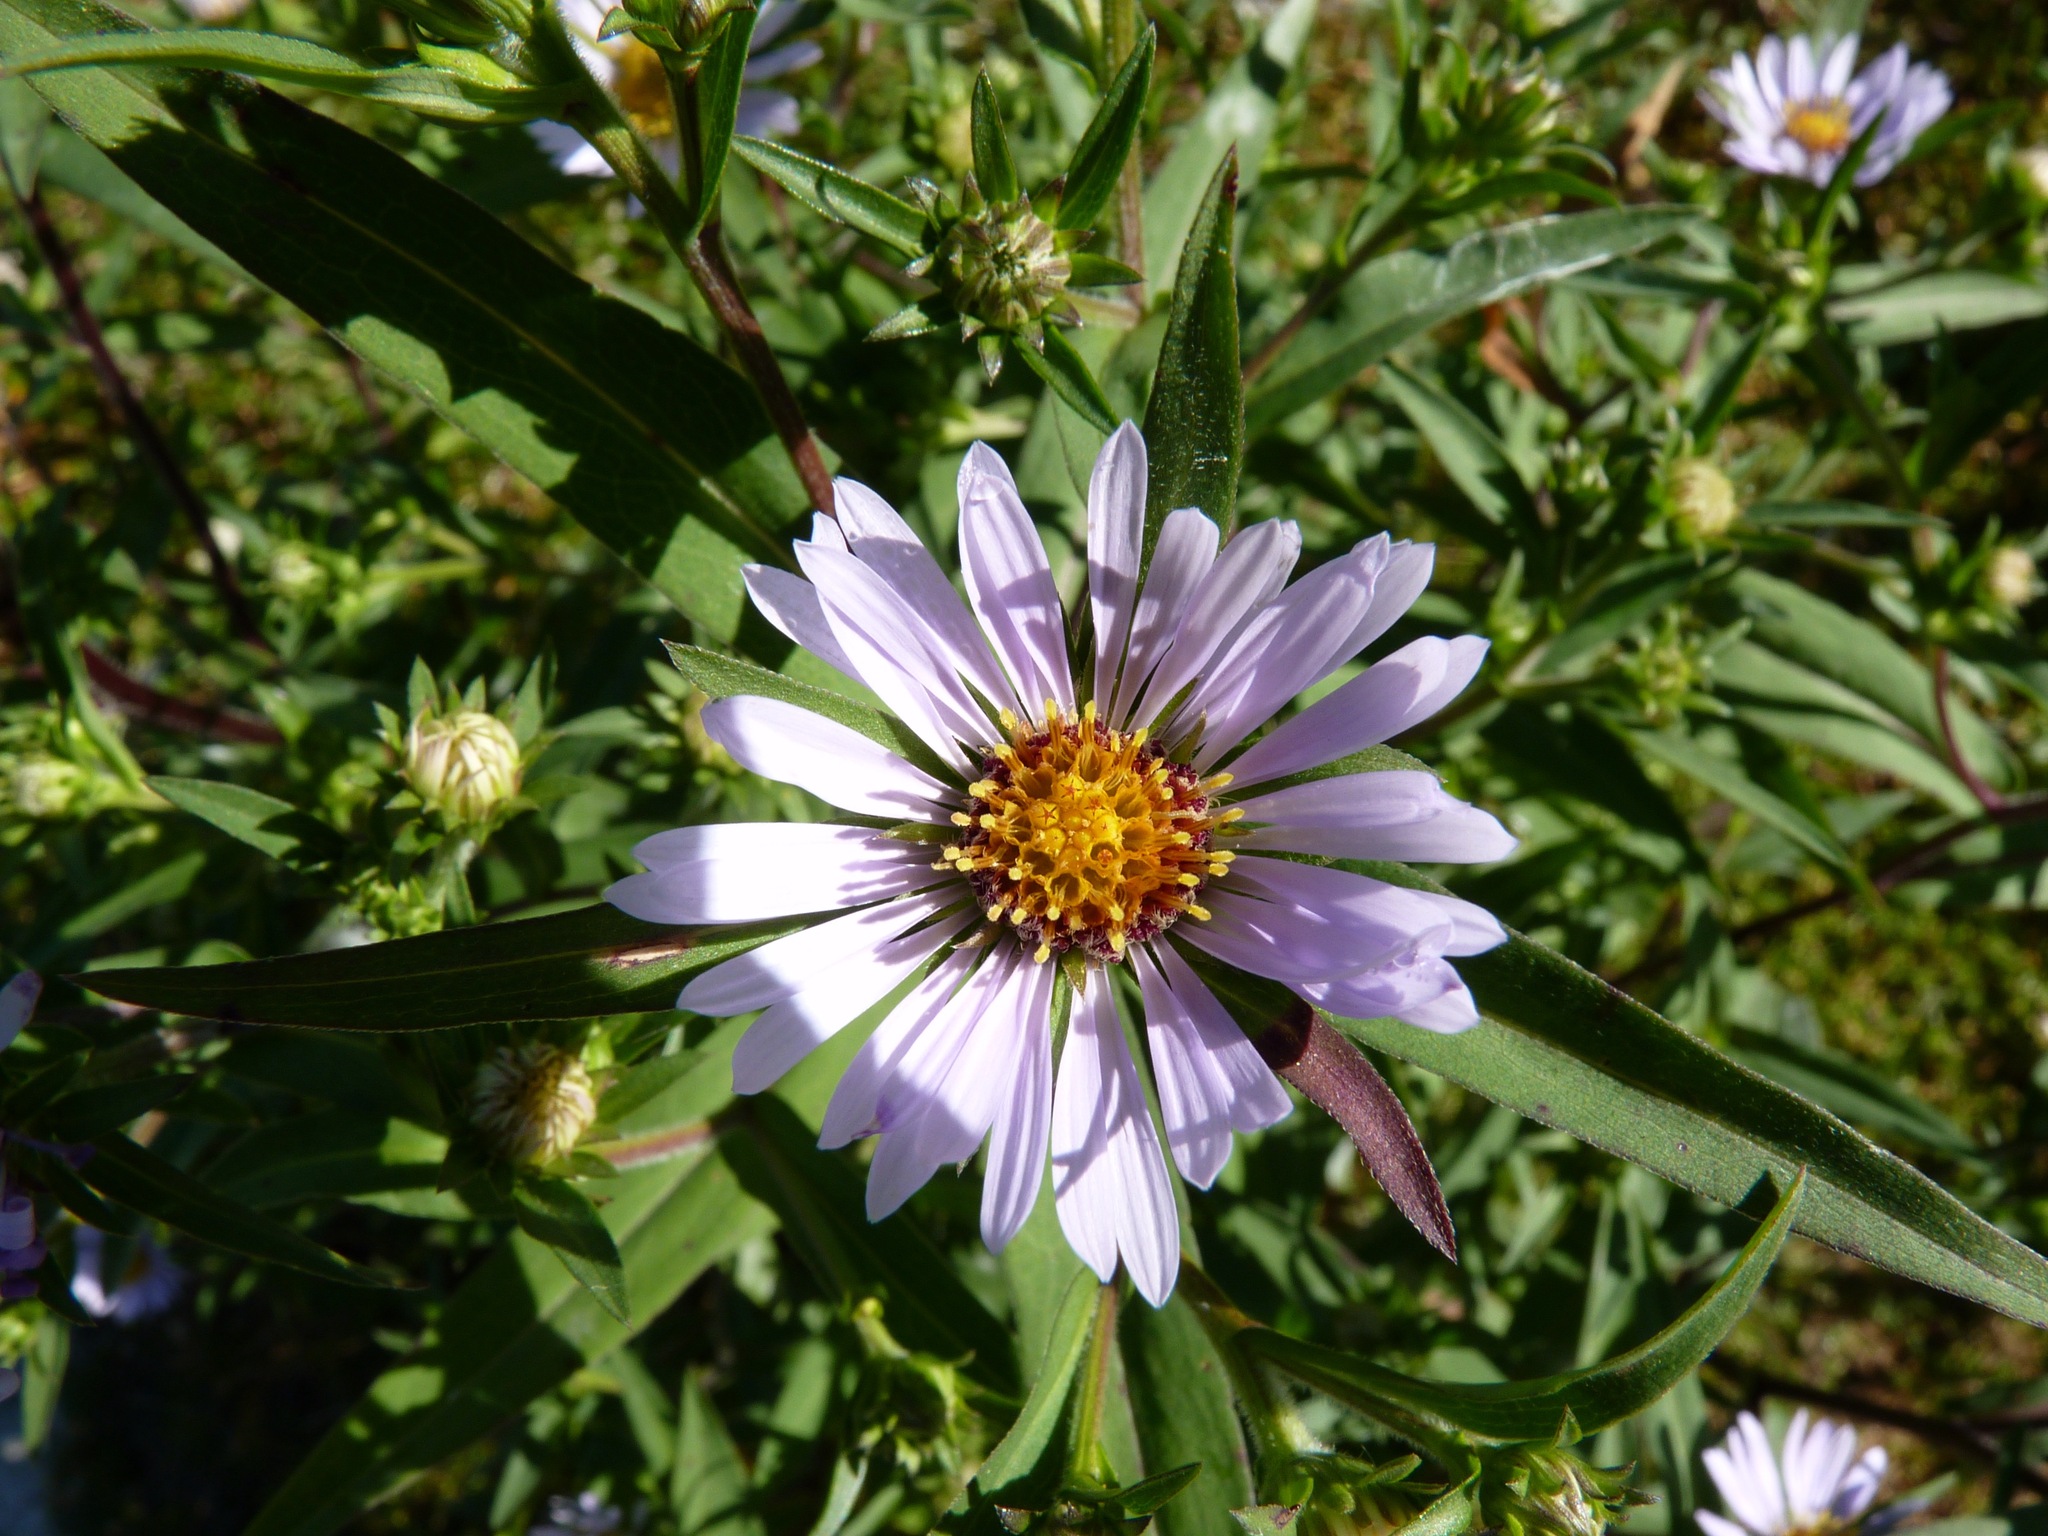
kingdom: Plantae
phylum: Tracheophyta
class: Magnoliopsida
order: Asterales
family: Asteraceae
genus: Symphyotrichum
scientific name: Symphyotrichum novi-belgii
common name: Michaelmas daisy
